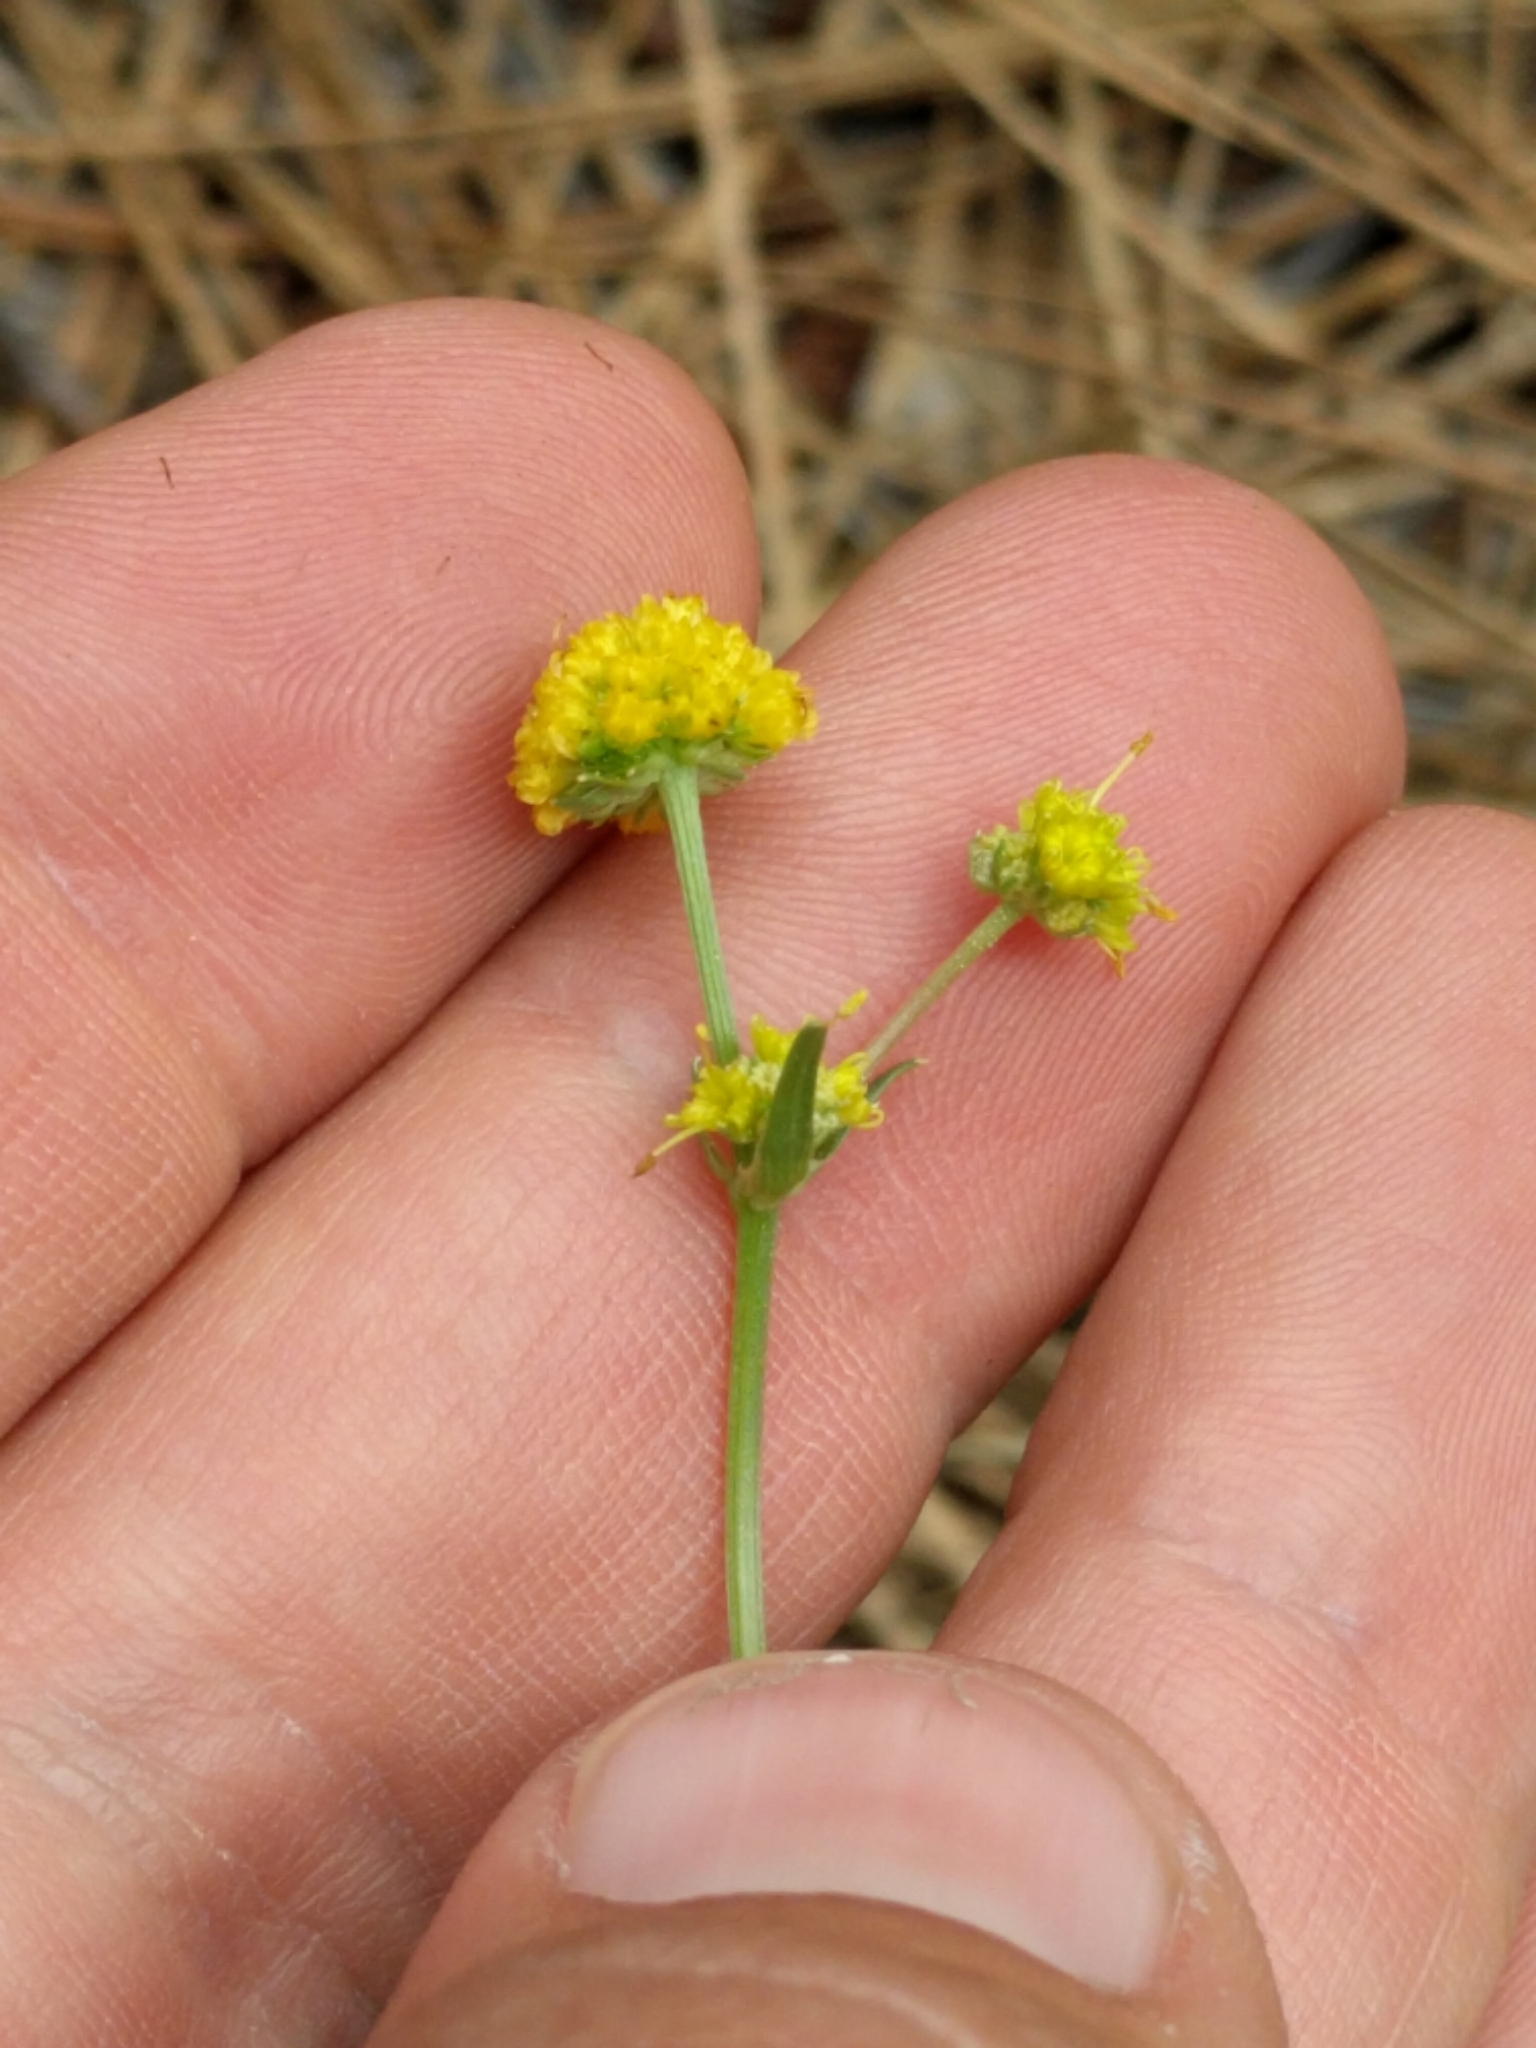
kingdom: Plantae
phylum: Tracheophyta
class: Magnoliopsida
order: Apiales
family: Apiaceae
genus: Sanicula
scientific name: Sanicula bipinnatifida
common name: Shoe-buttons
